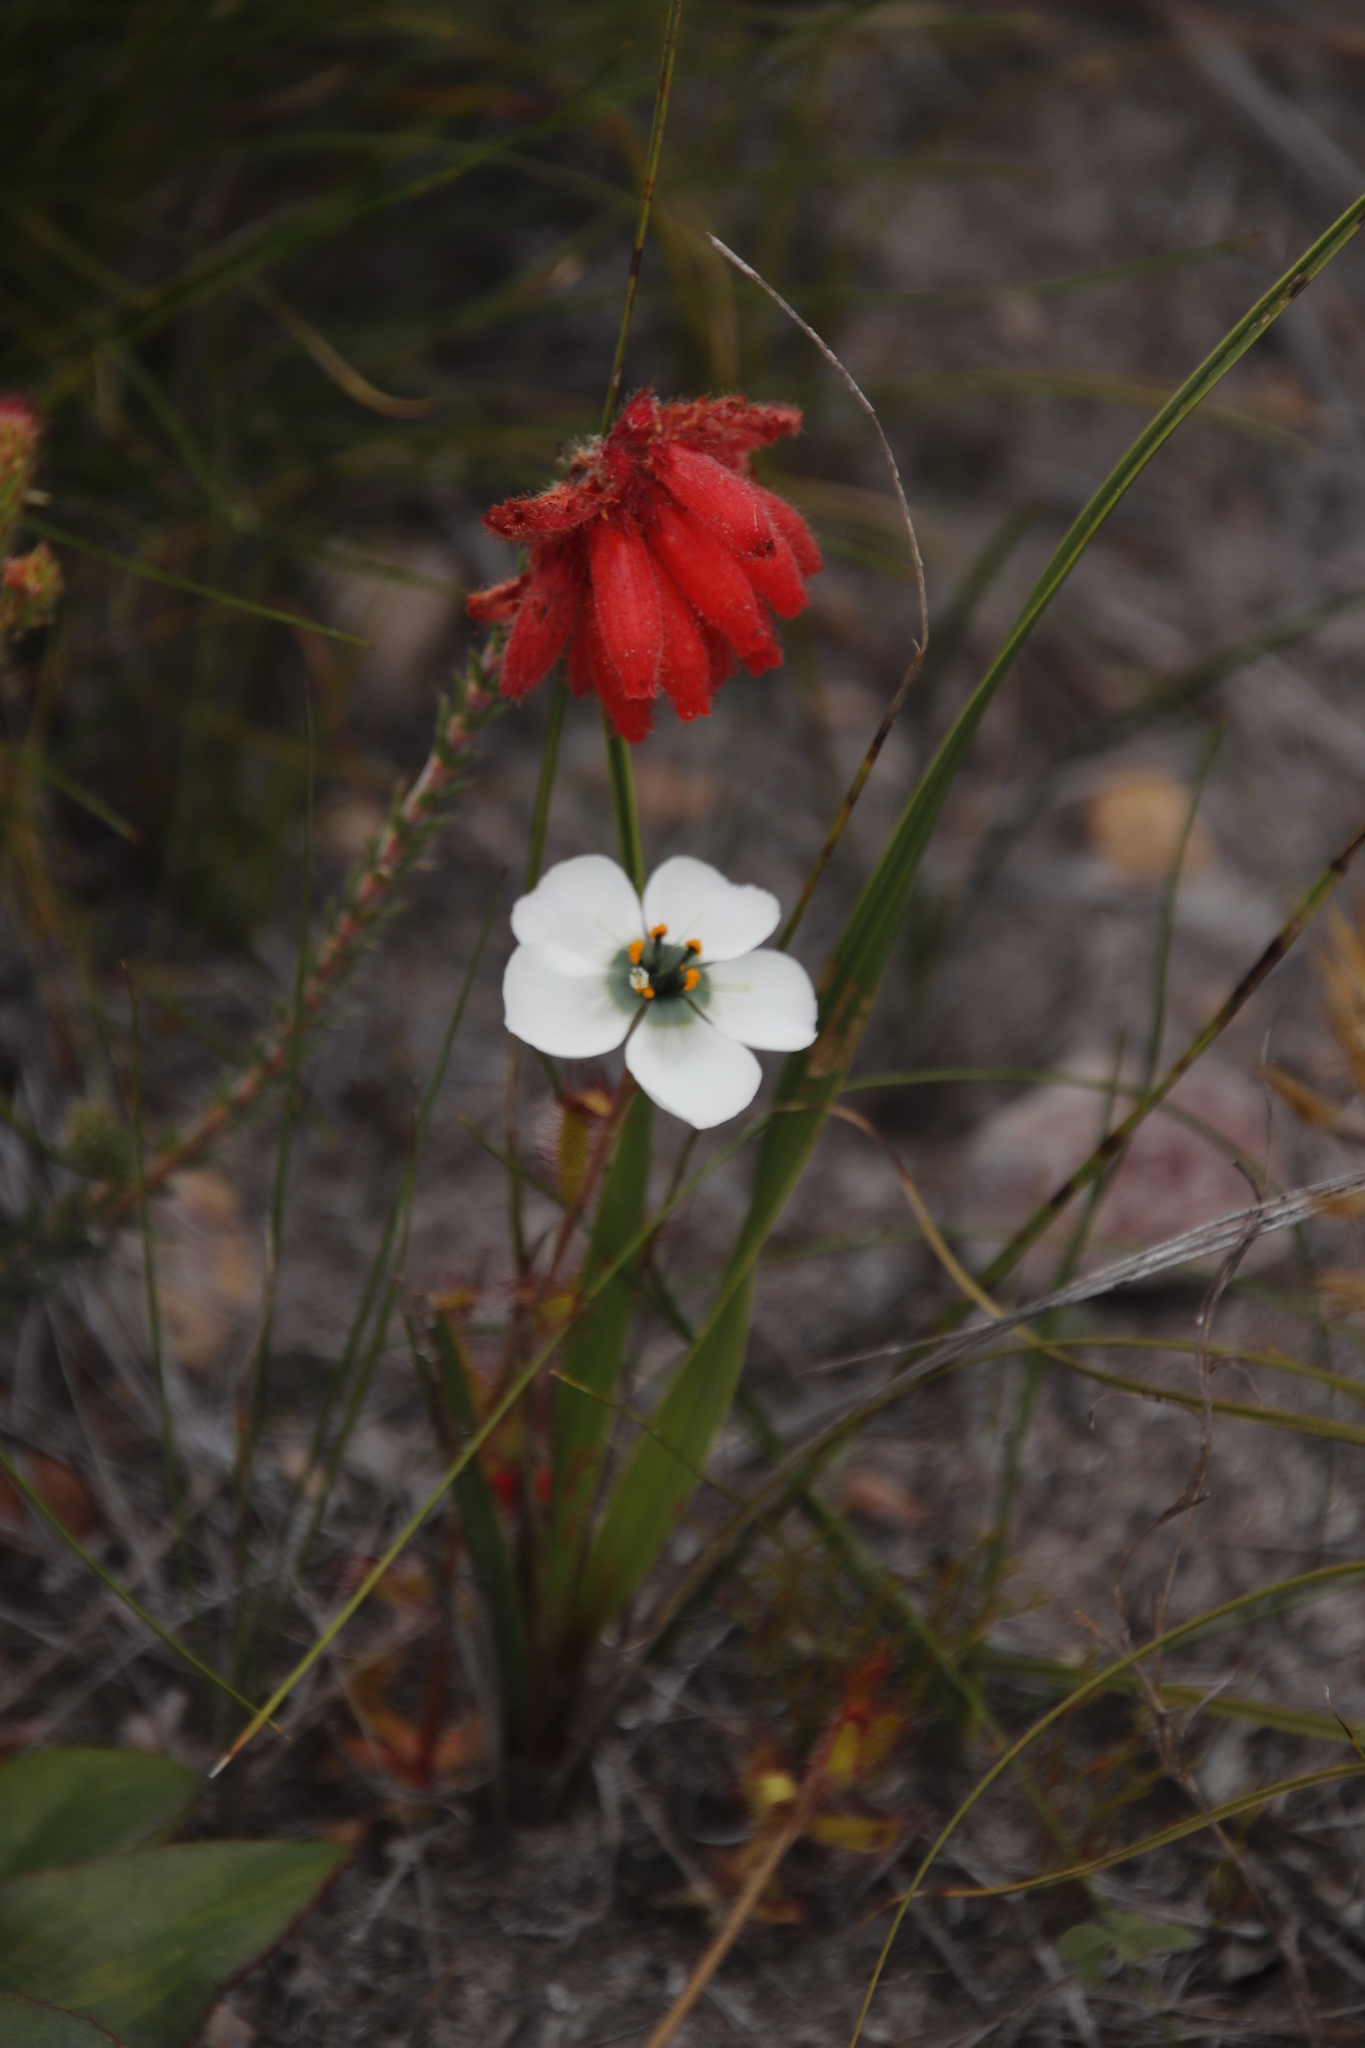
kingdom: Plantae
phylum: Tracheophyta
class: Magnoliopsida
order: Caryophyllales
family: Droseraceae
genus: Drosera
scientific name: Drosera cistiflora
